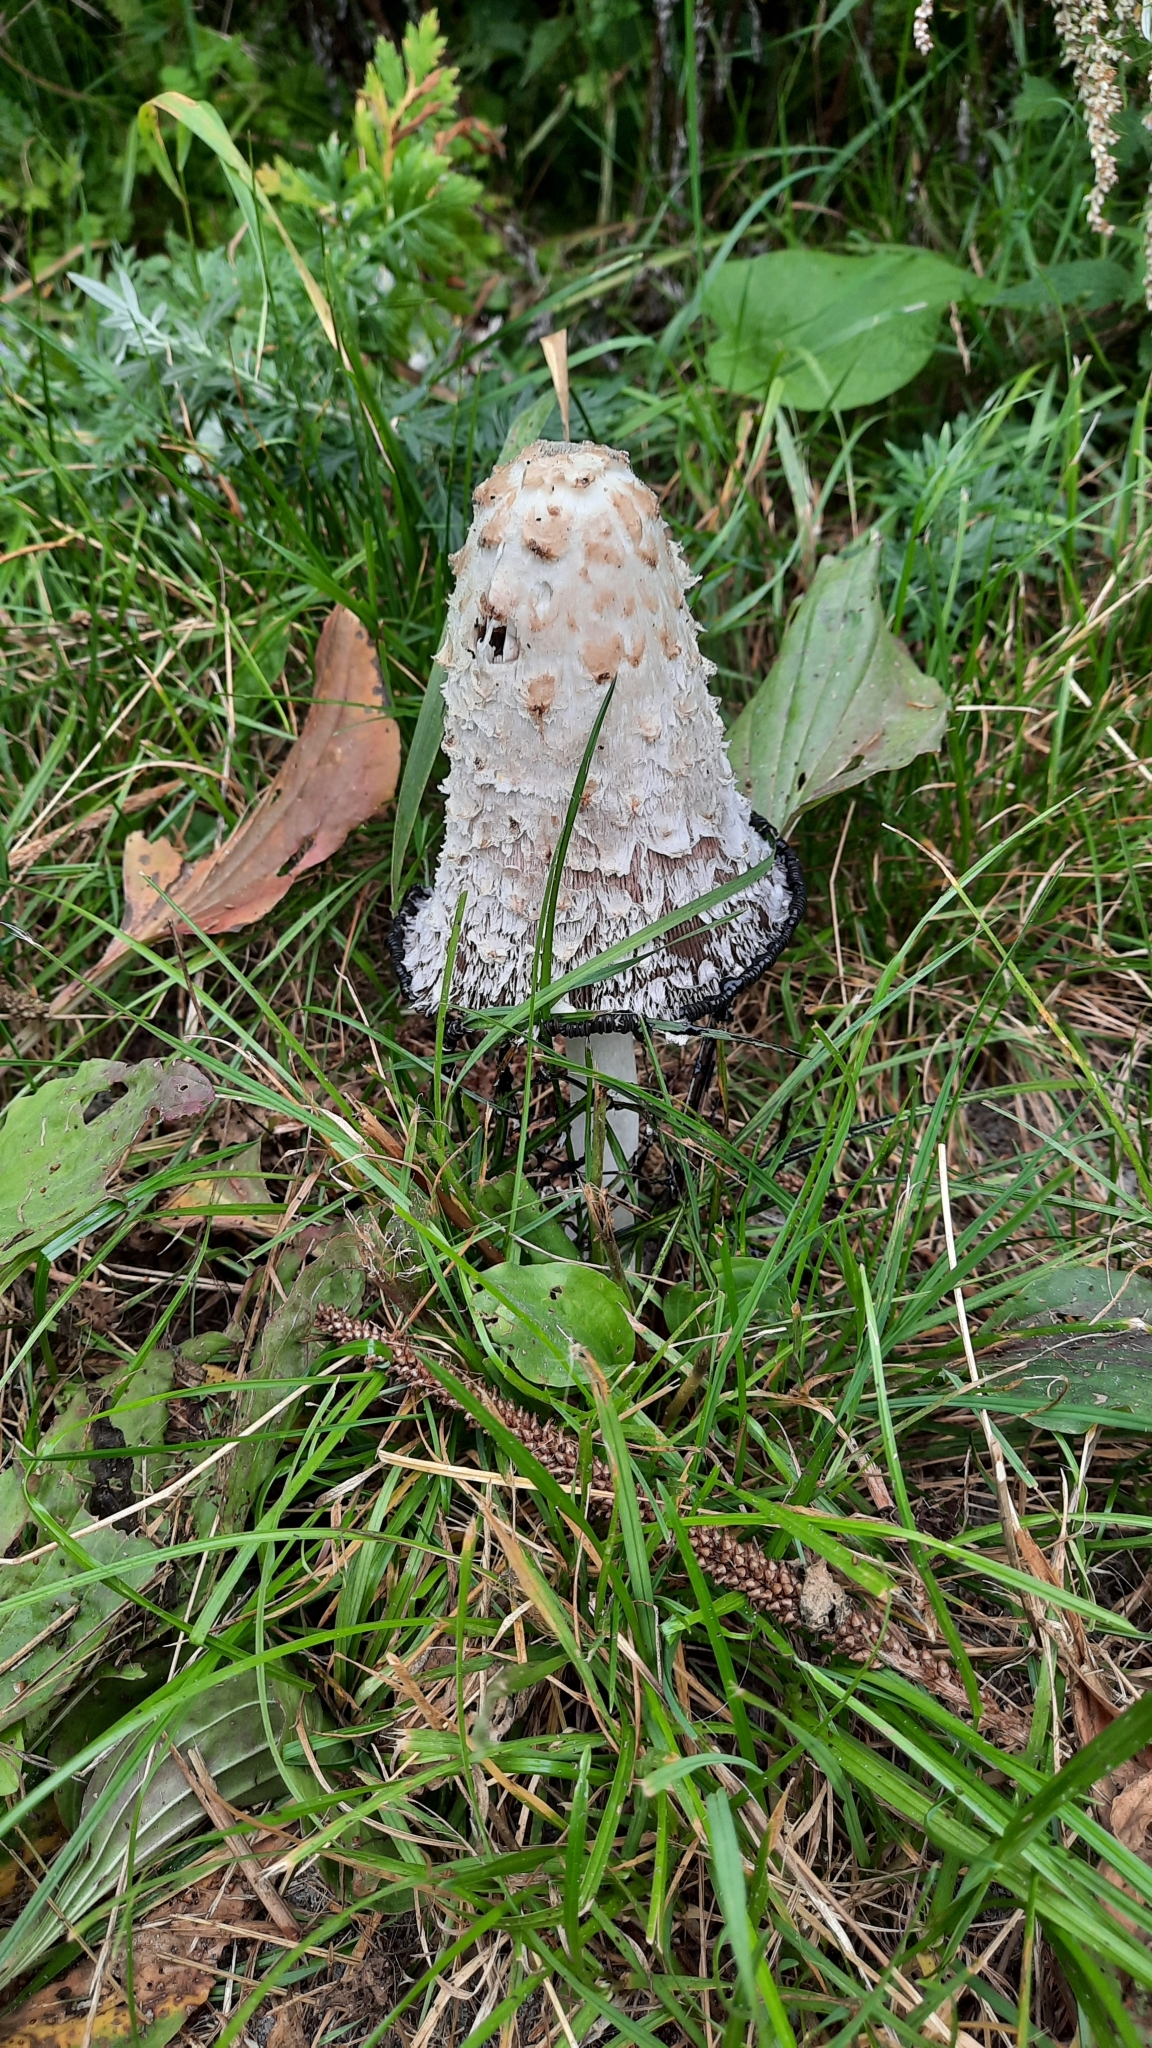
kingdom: Fungi
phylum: Basidiomycota
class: Agaricomycetes
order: Agaricales
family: Agaricaceae
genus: Coprinus
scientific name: Coprinus comatus
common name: Lawyer's wig
